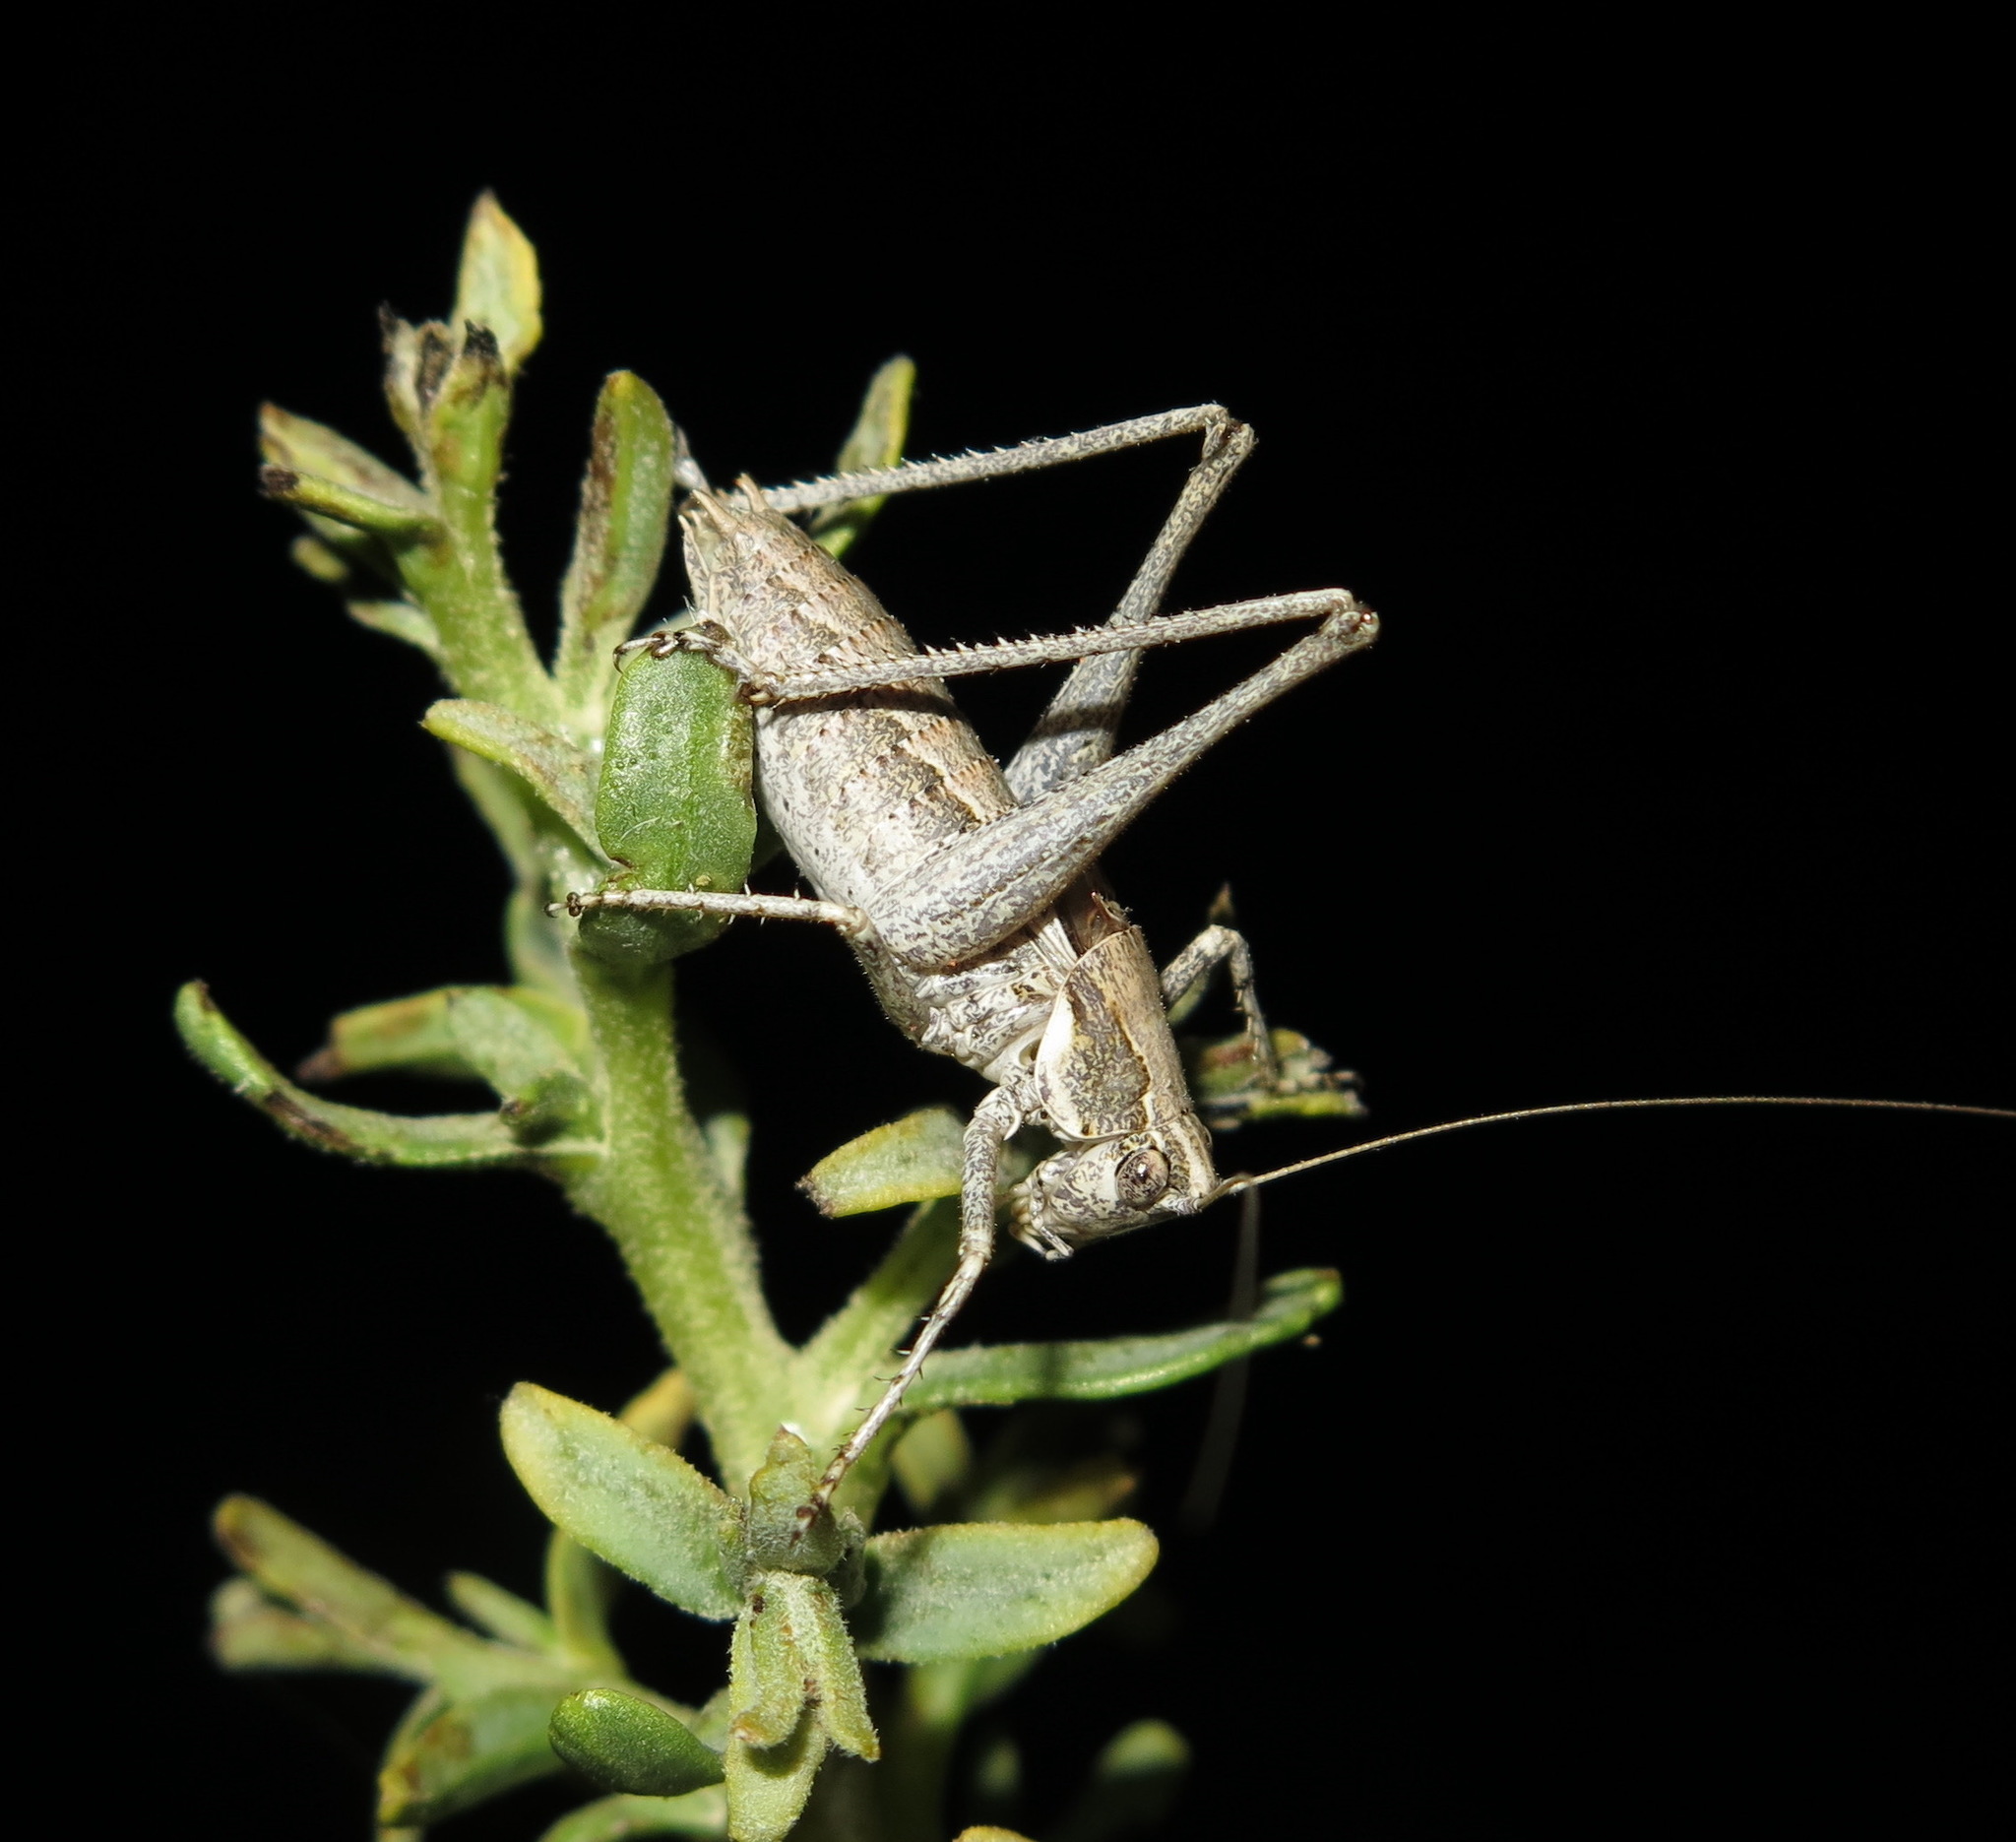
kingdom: Animalia
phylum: Arthropoda
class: Insecta
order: Orthoptera
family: Tettigoniidae
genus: Idiostatus
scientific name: Idiostatus apollo
